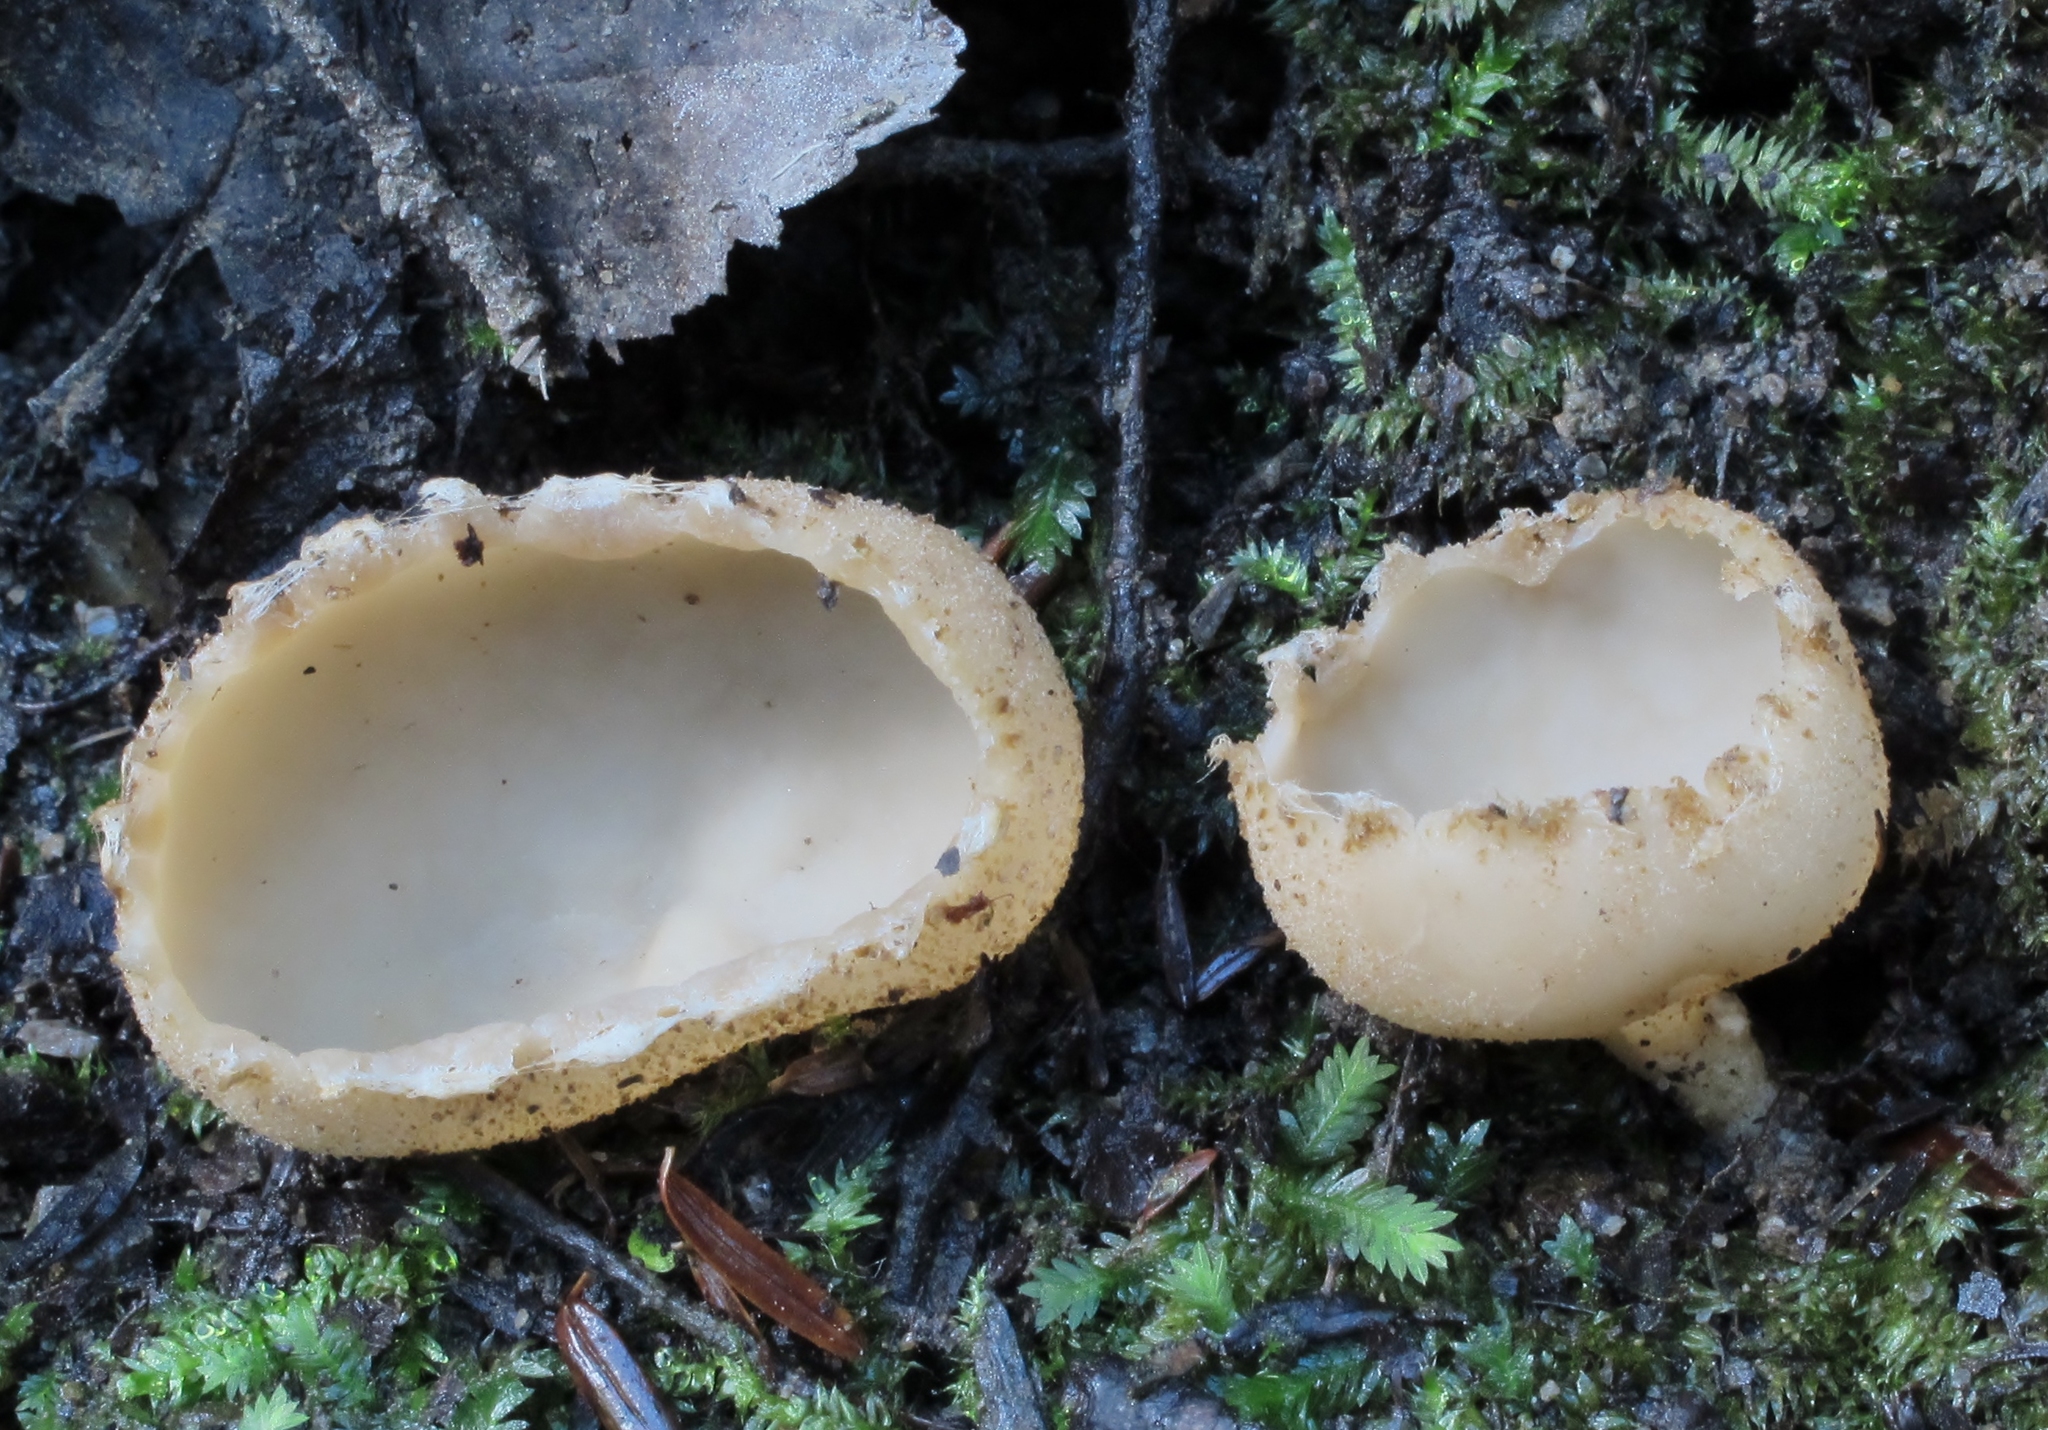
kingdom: Fungi
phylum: Ascomycota
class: Pezizomycetes
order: Pezizales
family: Tarzettaceae
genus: Tarzetta
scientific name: Tarzetta cupularis
